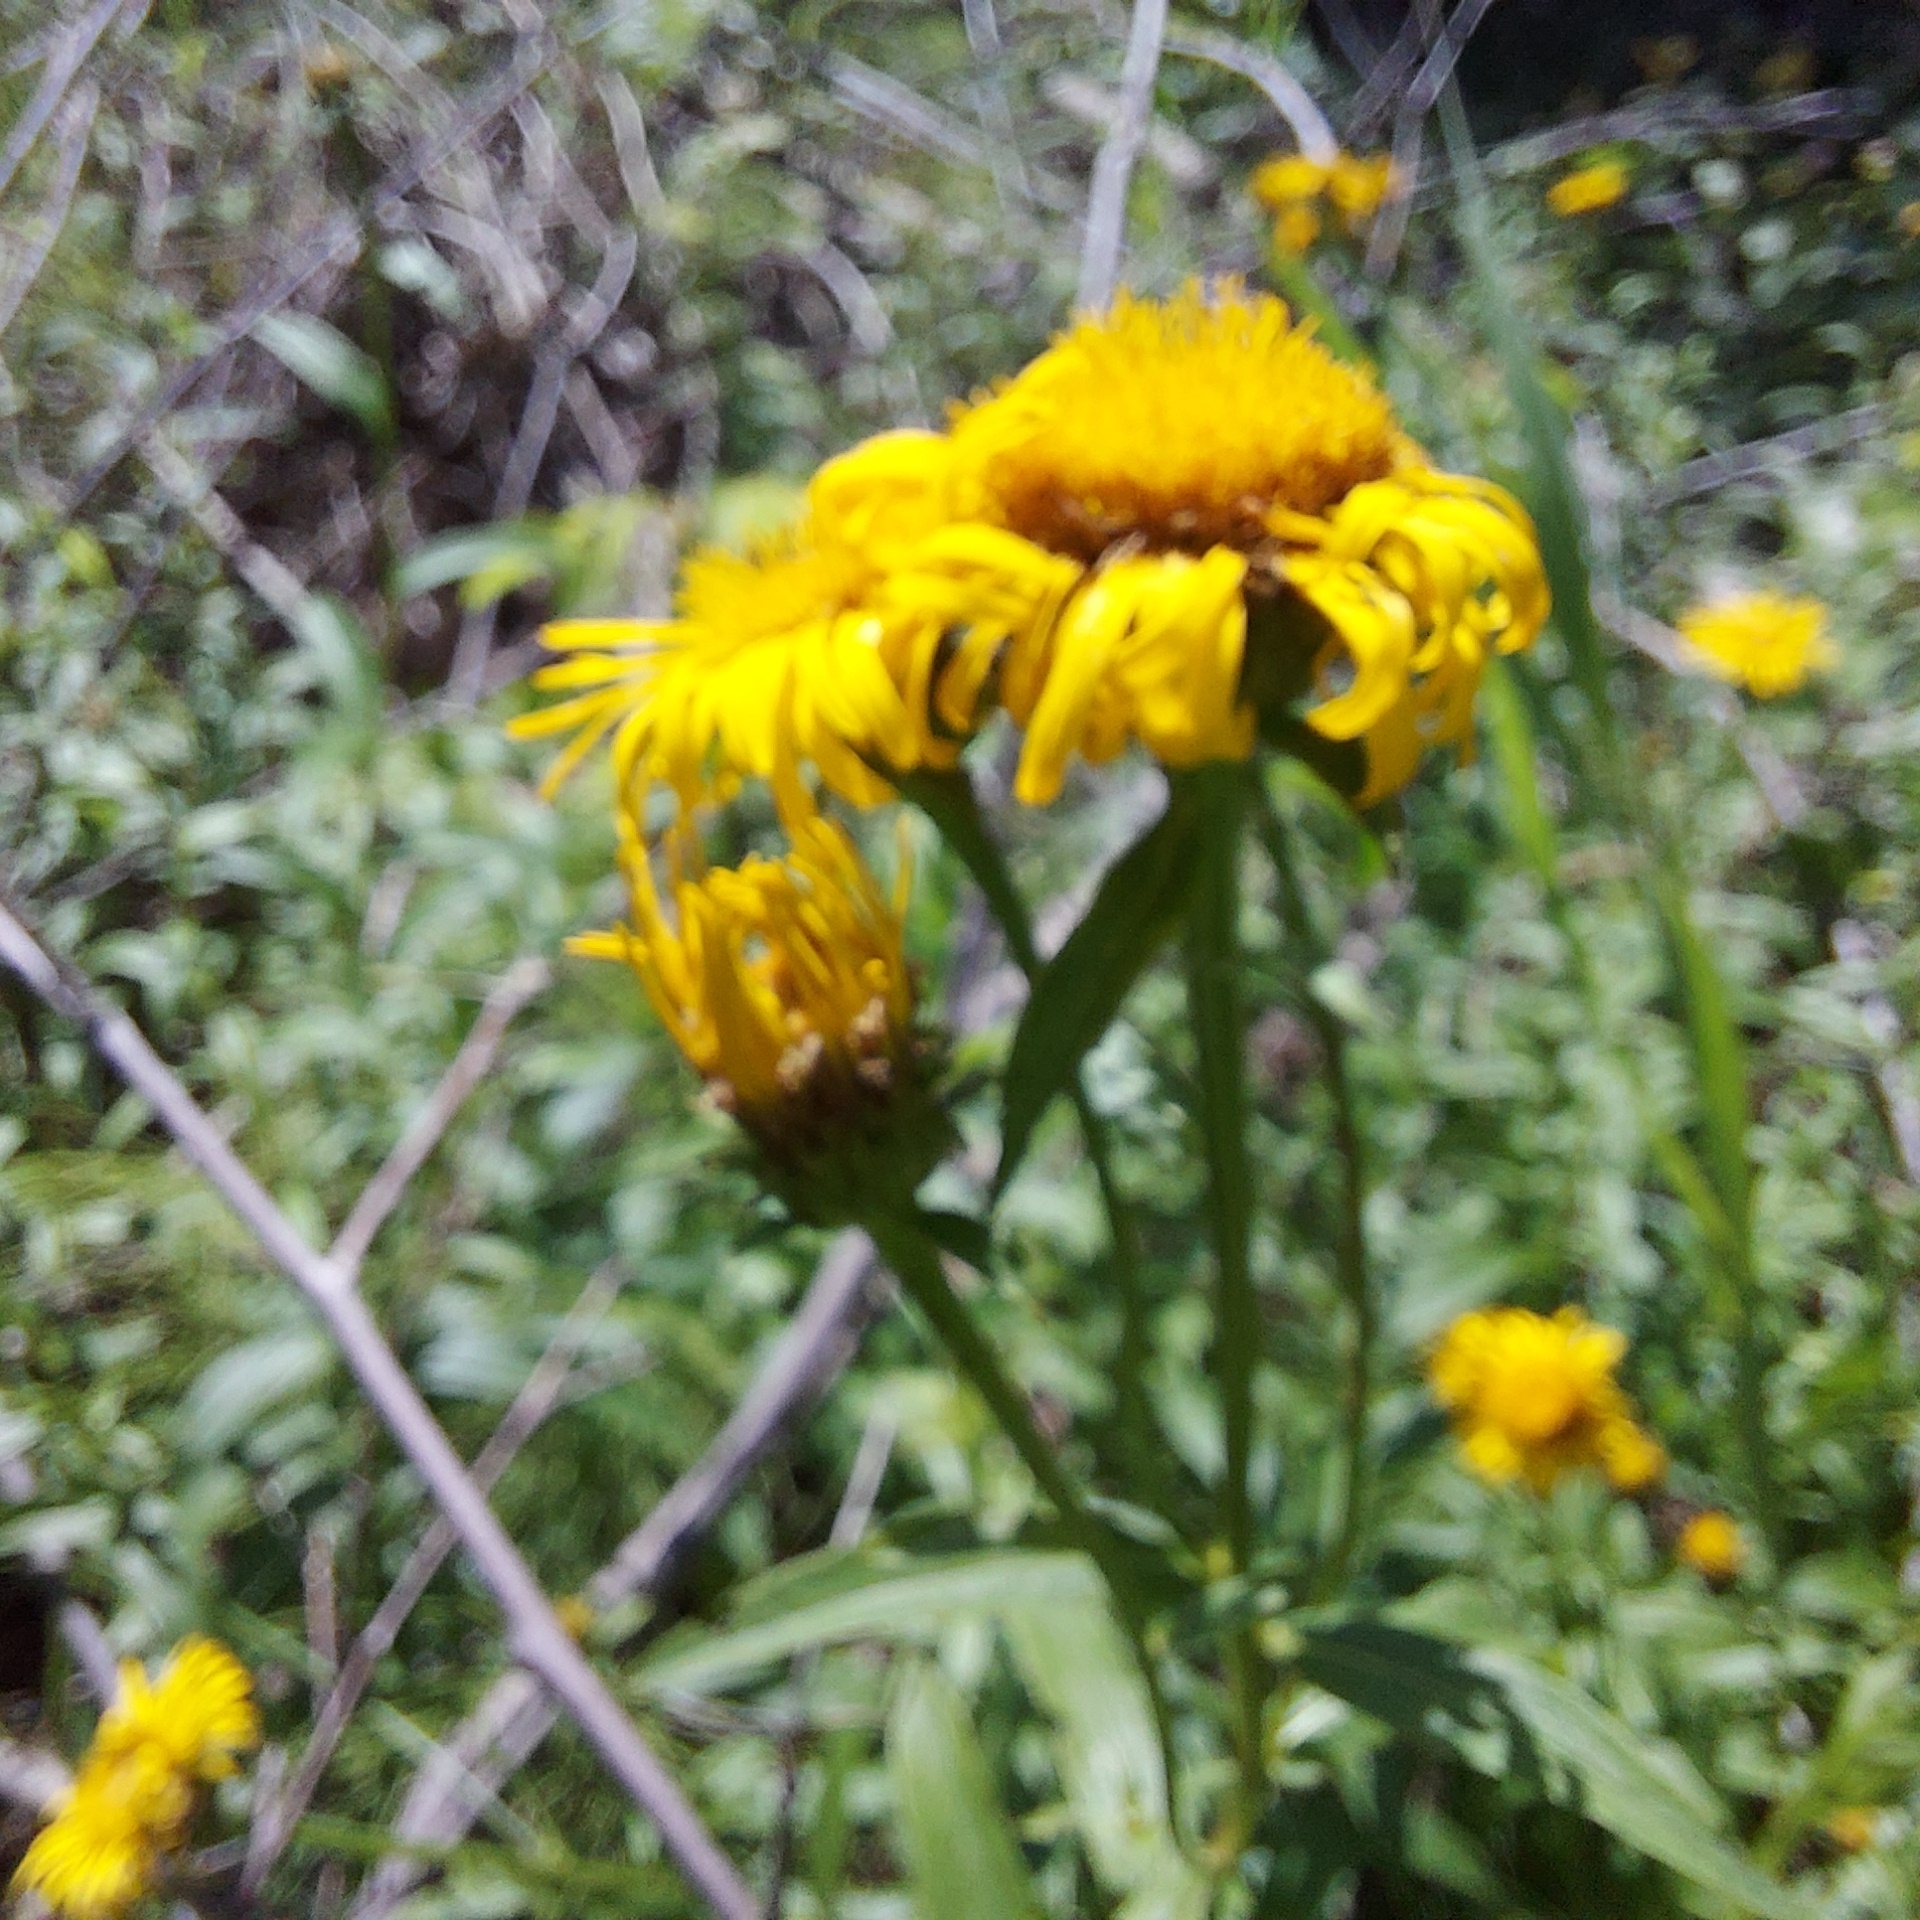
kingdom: Plantae
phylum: Tracheophyta
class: Magnoliopsida
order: Asterales
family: Asteraceae
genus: Pentanema
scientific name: Pentanema salicinum
